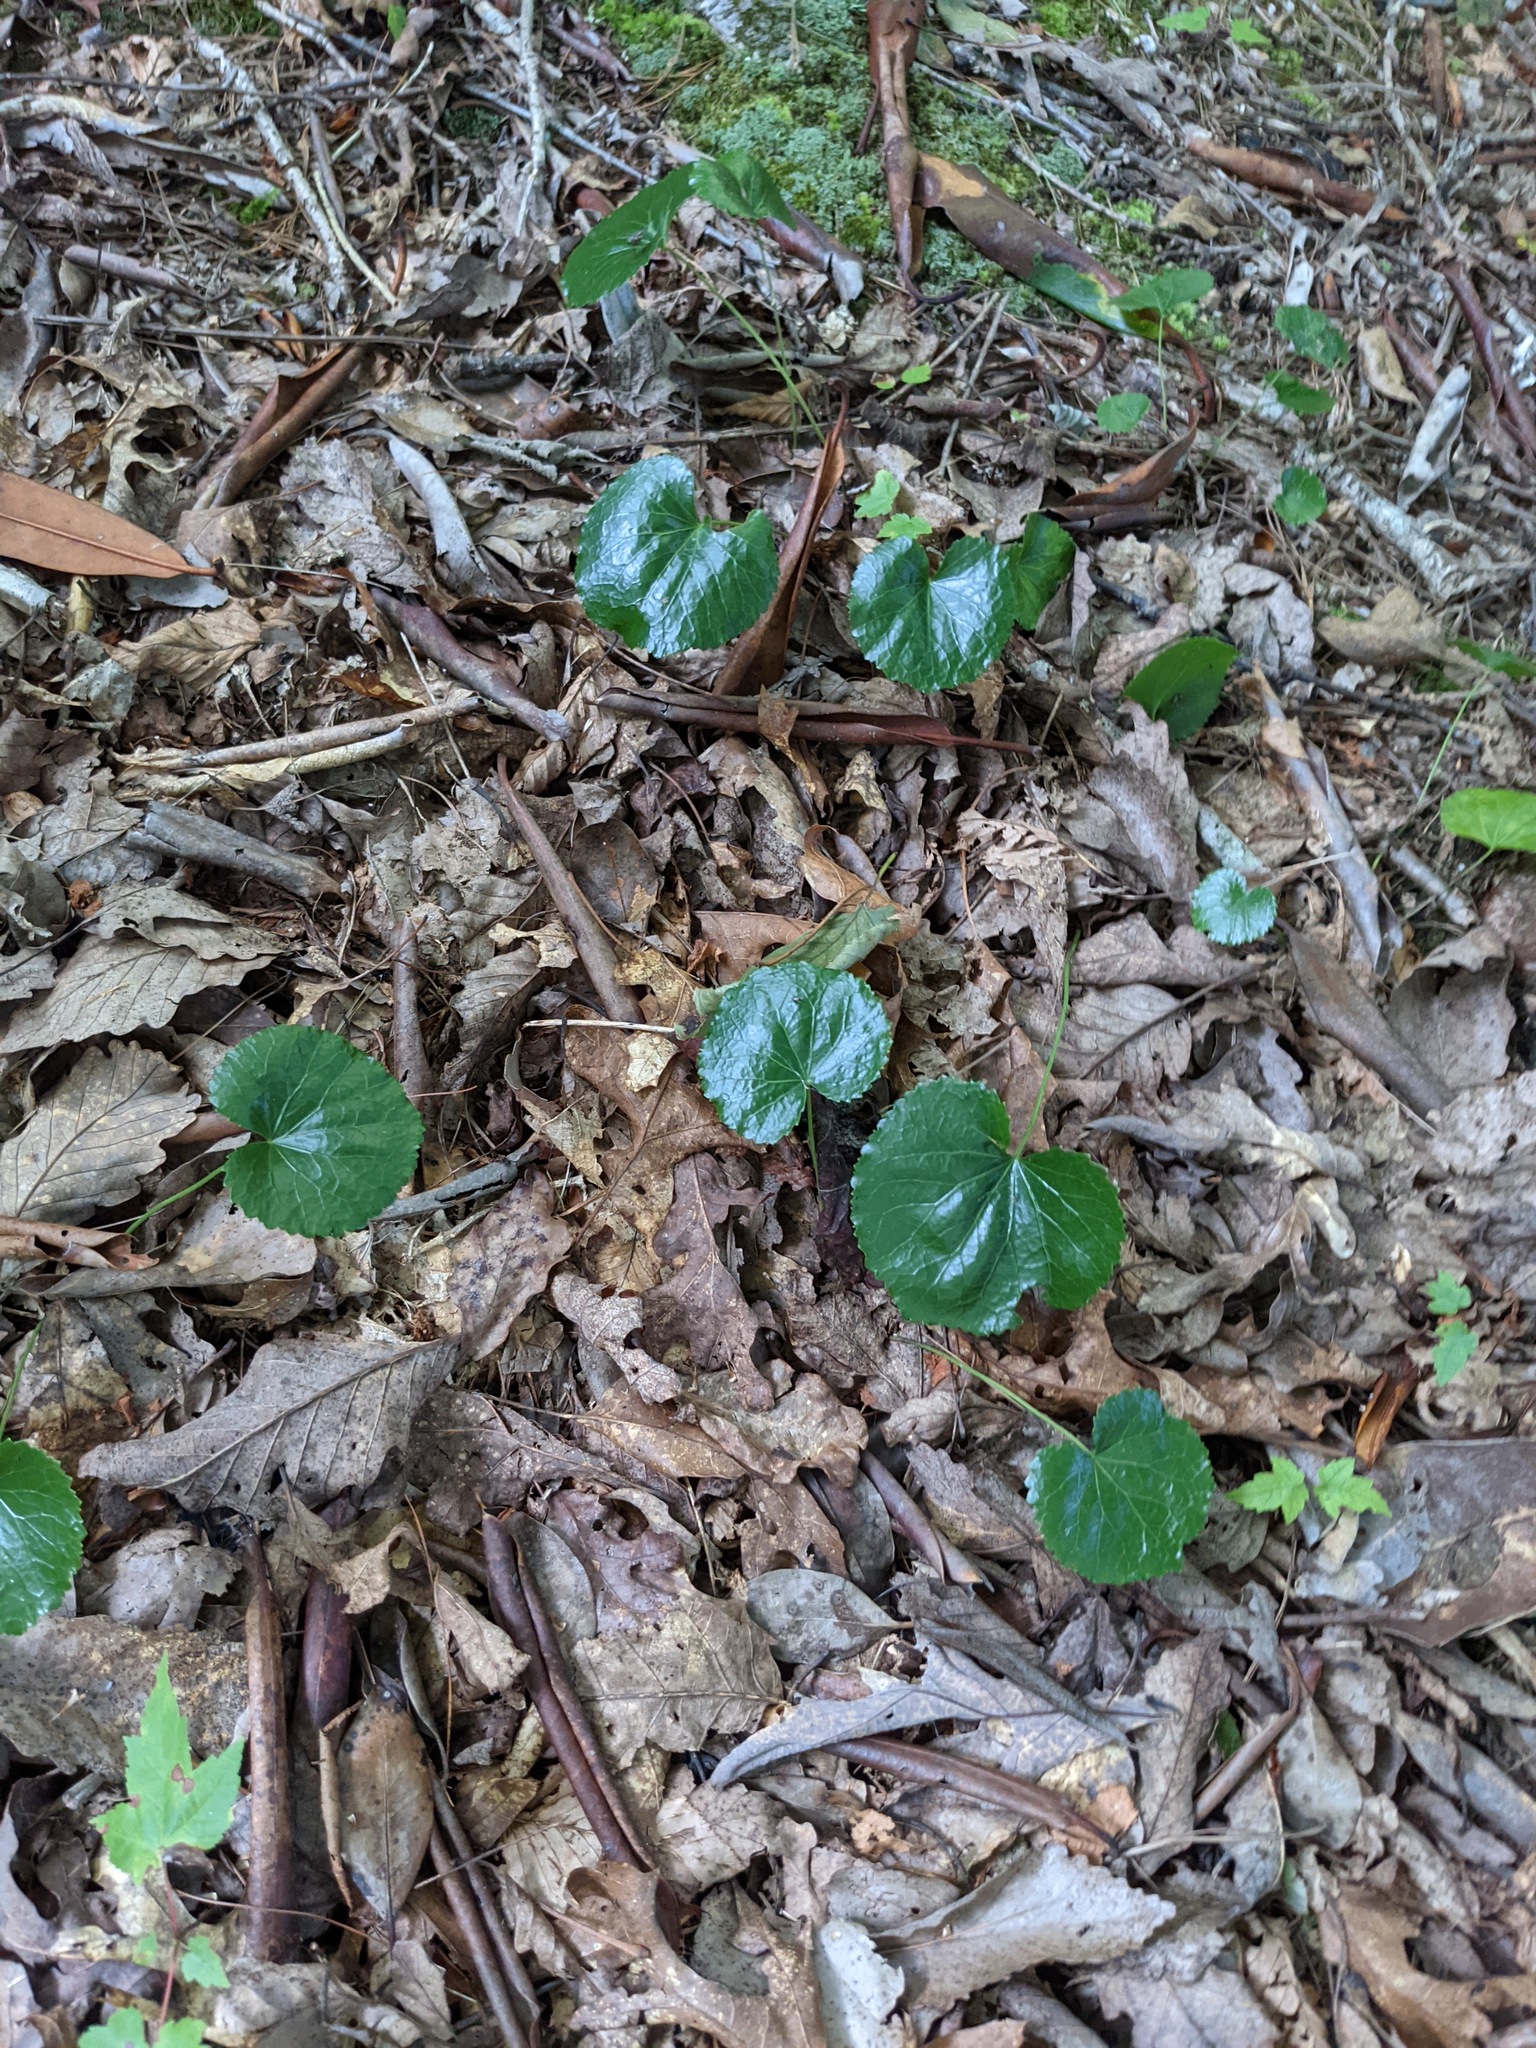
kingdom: Plantae
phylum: Tracheophyta
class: Magnoliopsida
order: Ericales
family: Diapensiaceae
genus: Galax
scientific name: Galax urceolata
